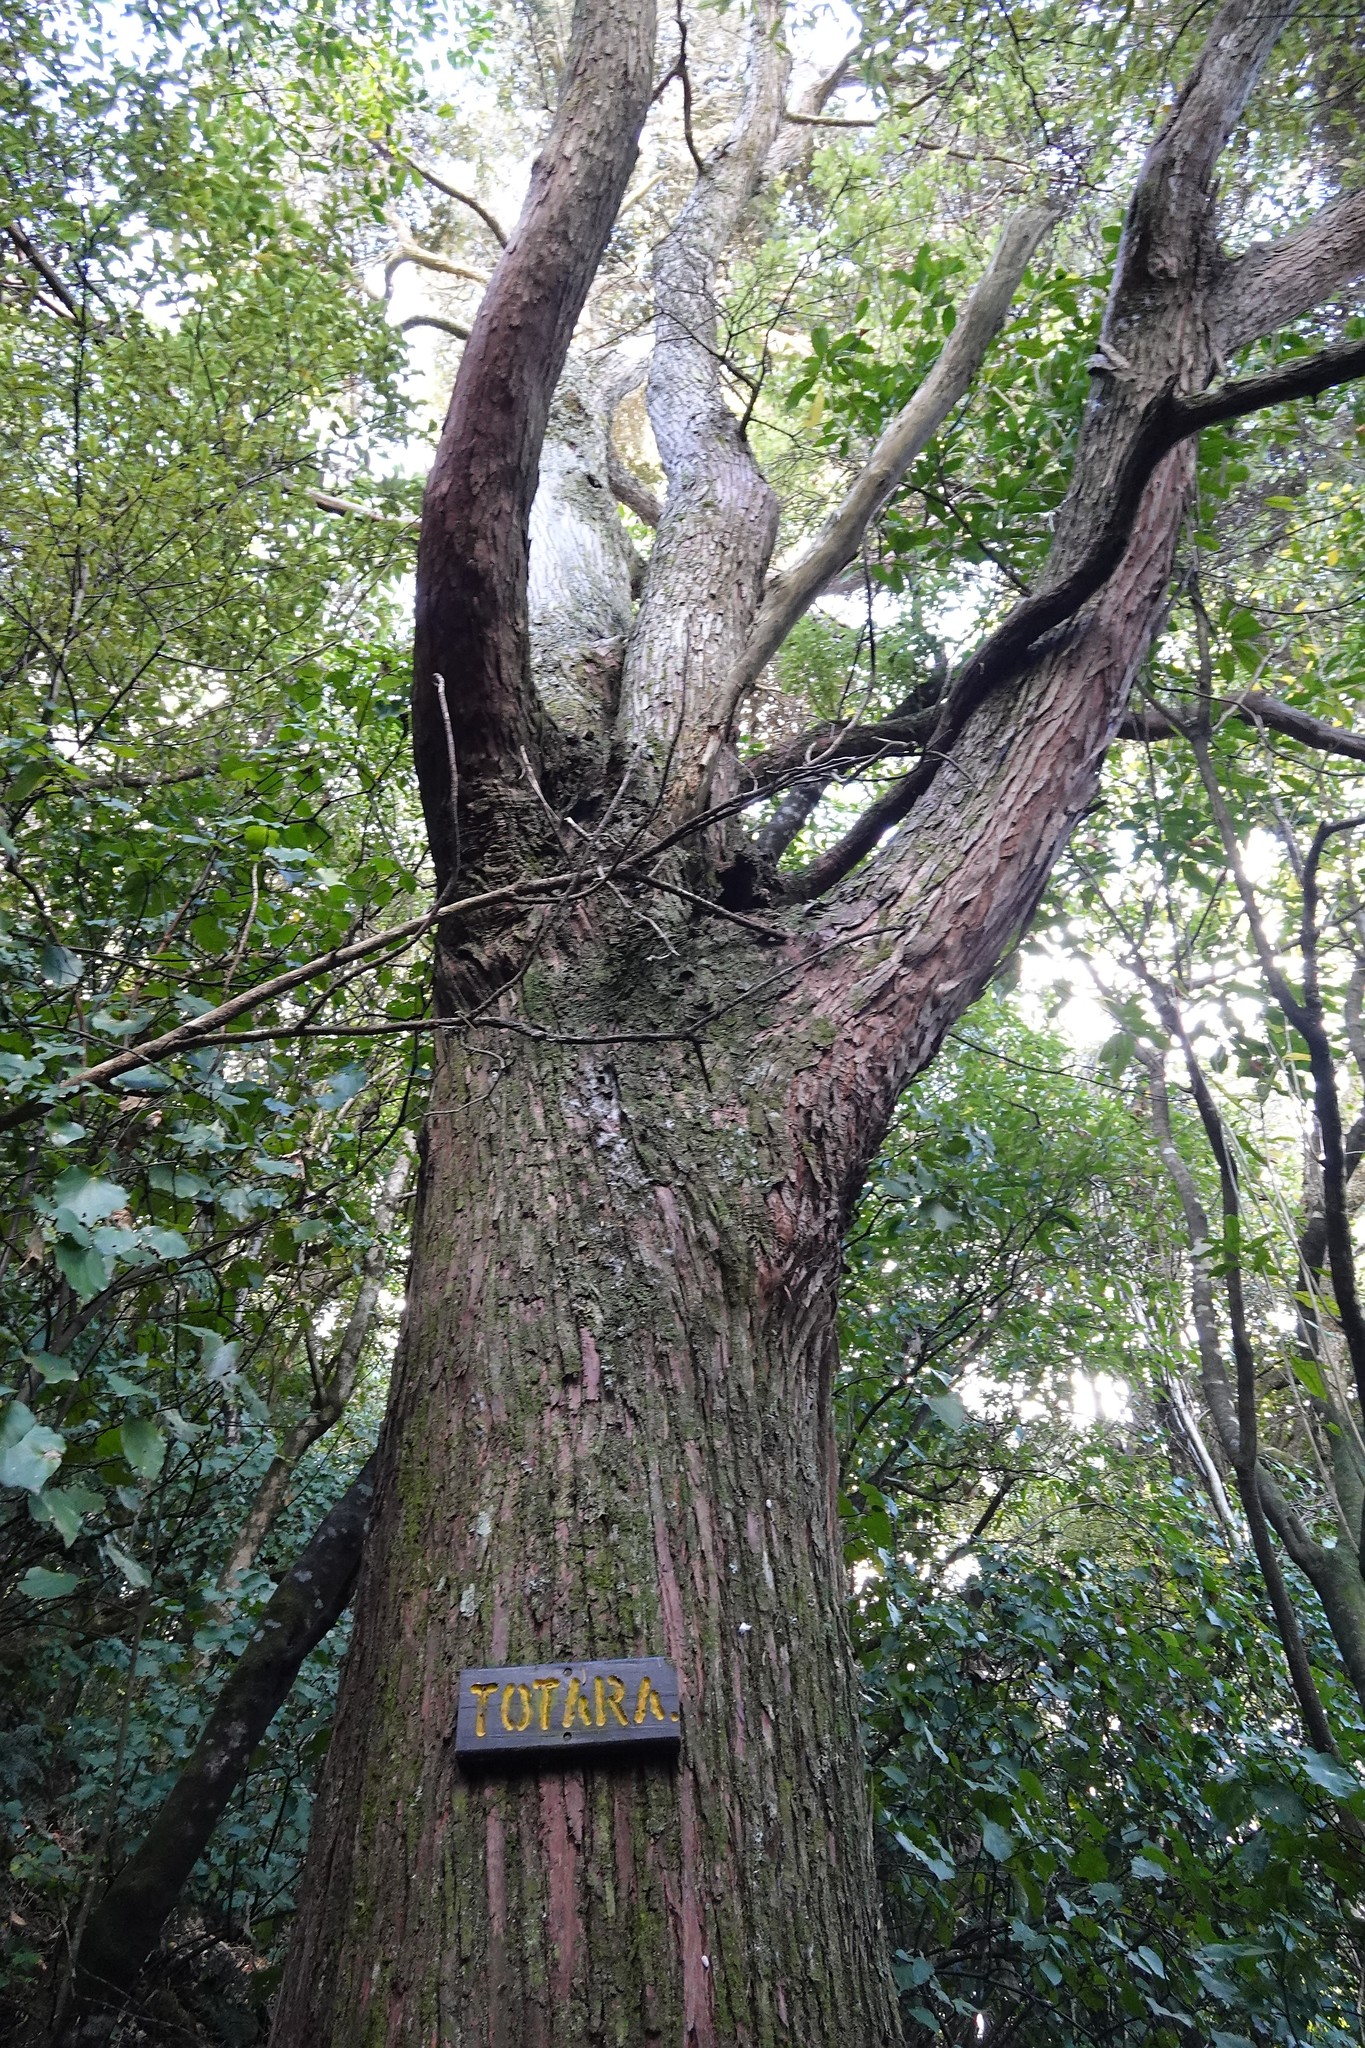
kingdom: Plantae
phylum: Tracheophyta
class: Pinopsida
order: Pinales
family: Podocarpaceae
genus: Podocarpus
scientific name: Podocarpus totara
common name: Totara
